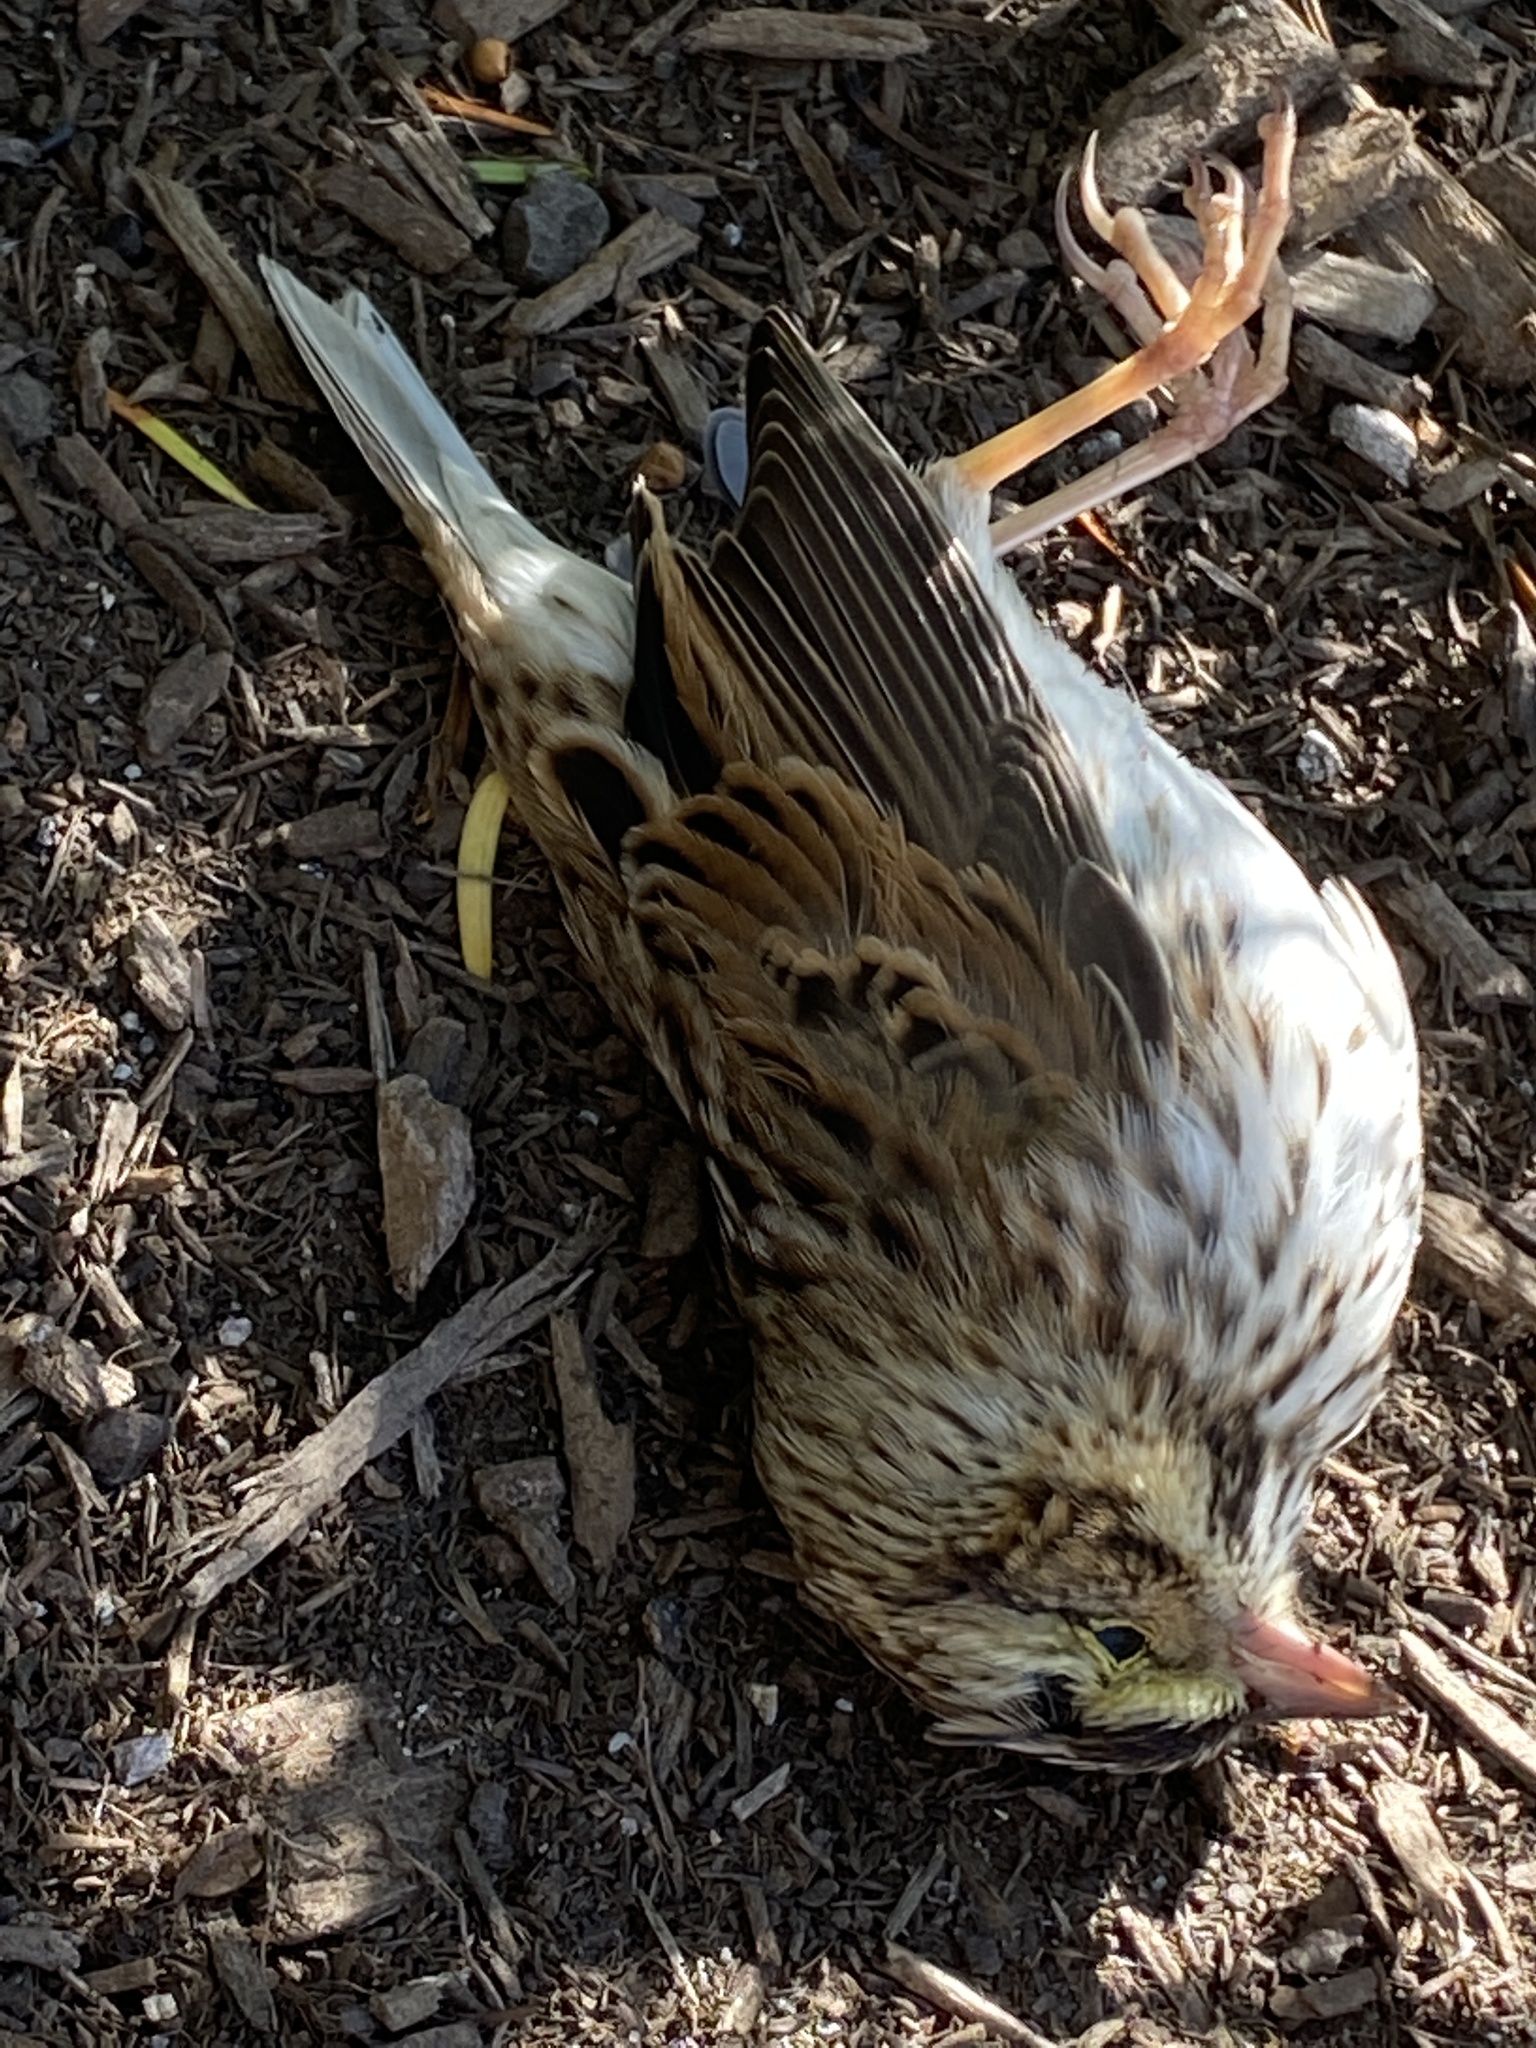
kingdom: Animalia
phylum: Chordata
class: Aves
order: Passeriformes
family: Passerellidae
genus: Passerculus
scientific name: Passerculus sandwichensis
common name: Savannah sparrow
